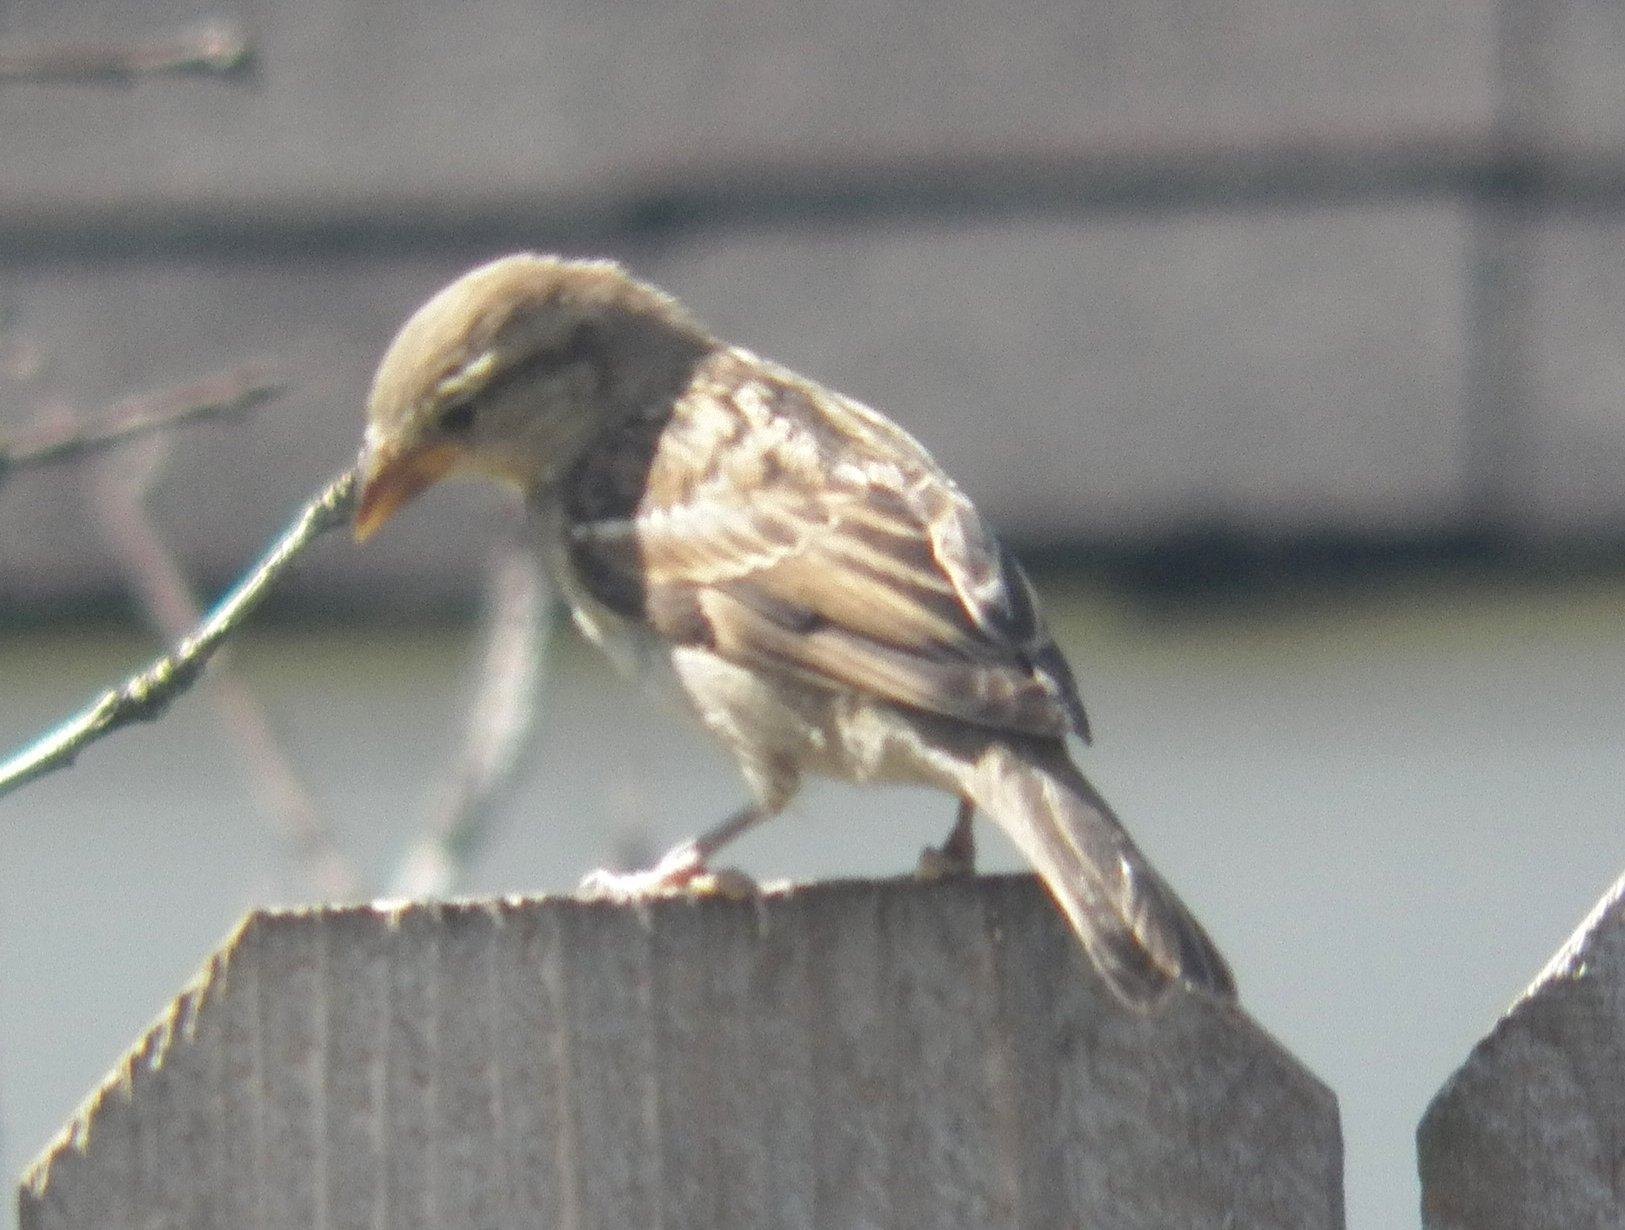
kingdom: Animalia
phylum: Chordata
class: Aves
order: Passeriformes
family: Passeridae
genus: Passer
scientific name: Passer domesticus
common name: House sparrow
